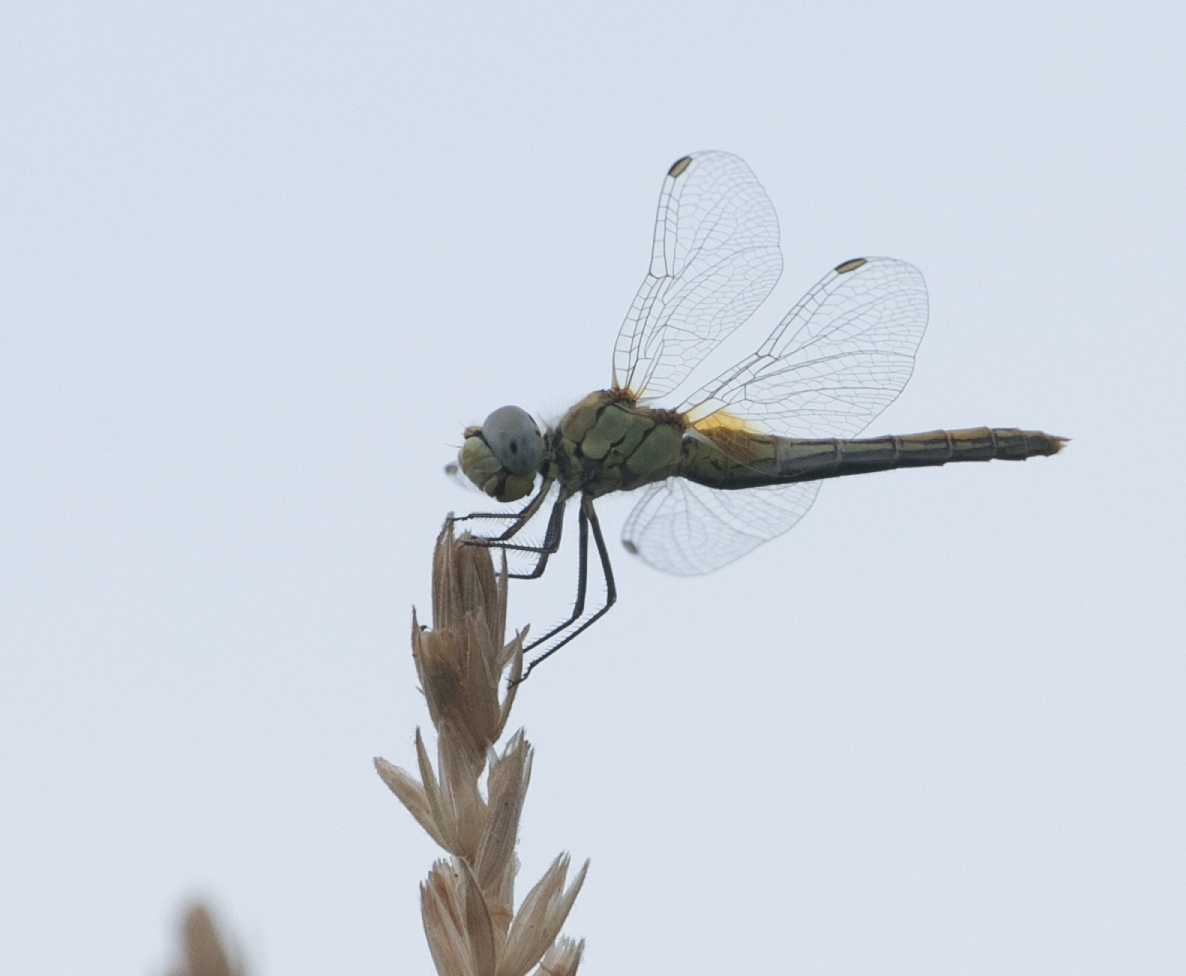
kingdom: Animalia
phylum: Arthropoda
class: Insecta
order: Odonata
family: Libellulidae
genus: Sympetrum
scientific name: Sympetrum fonscolombii
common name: Red-veined darter
